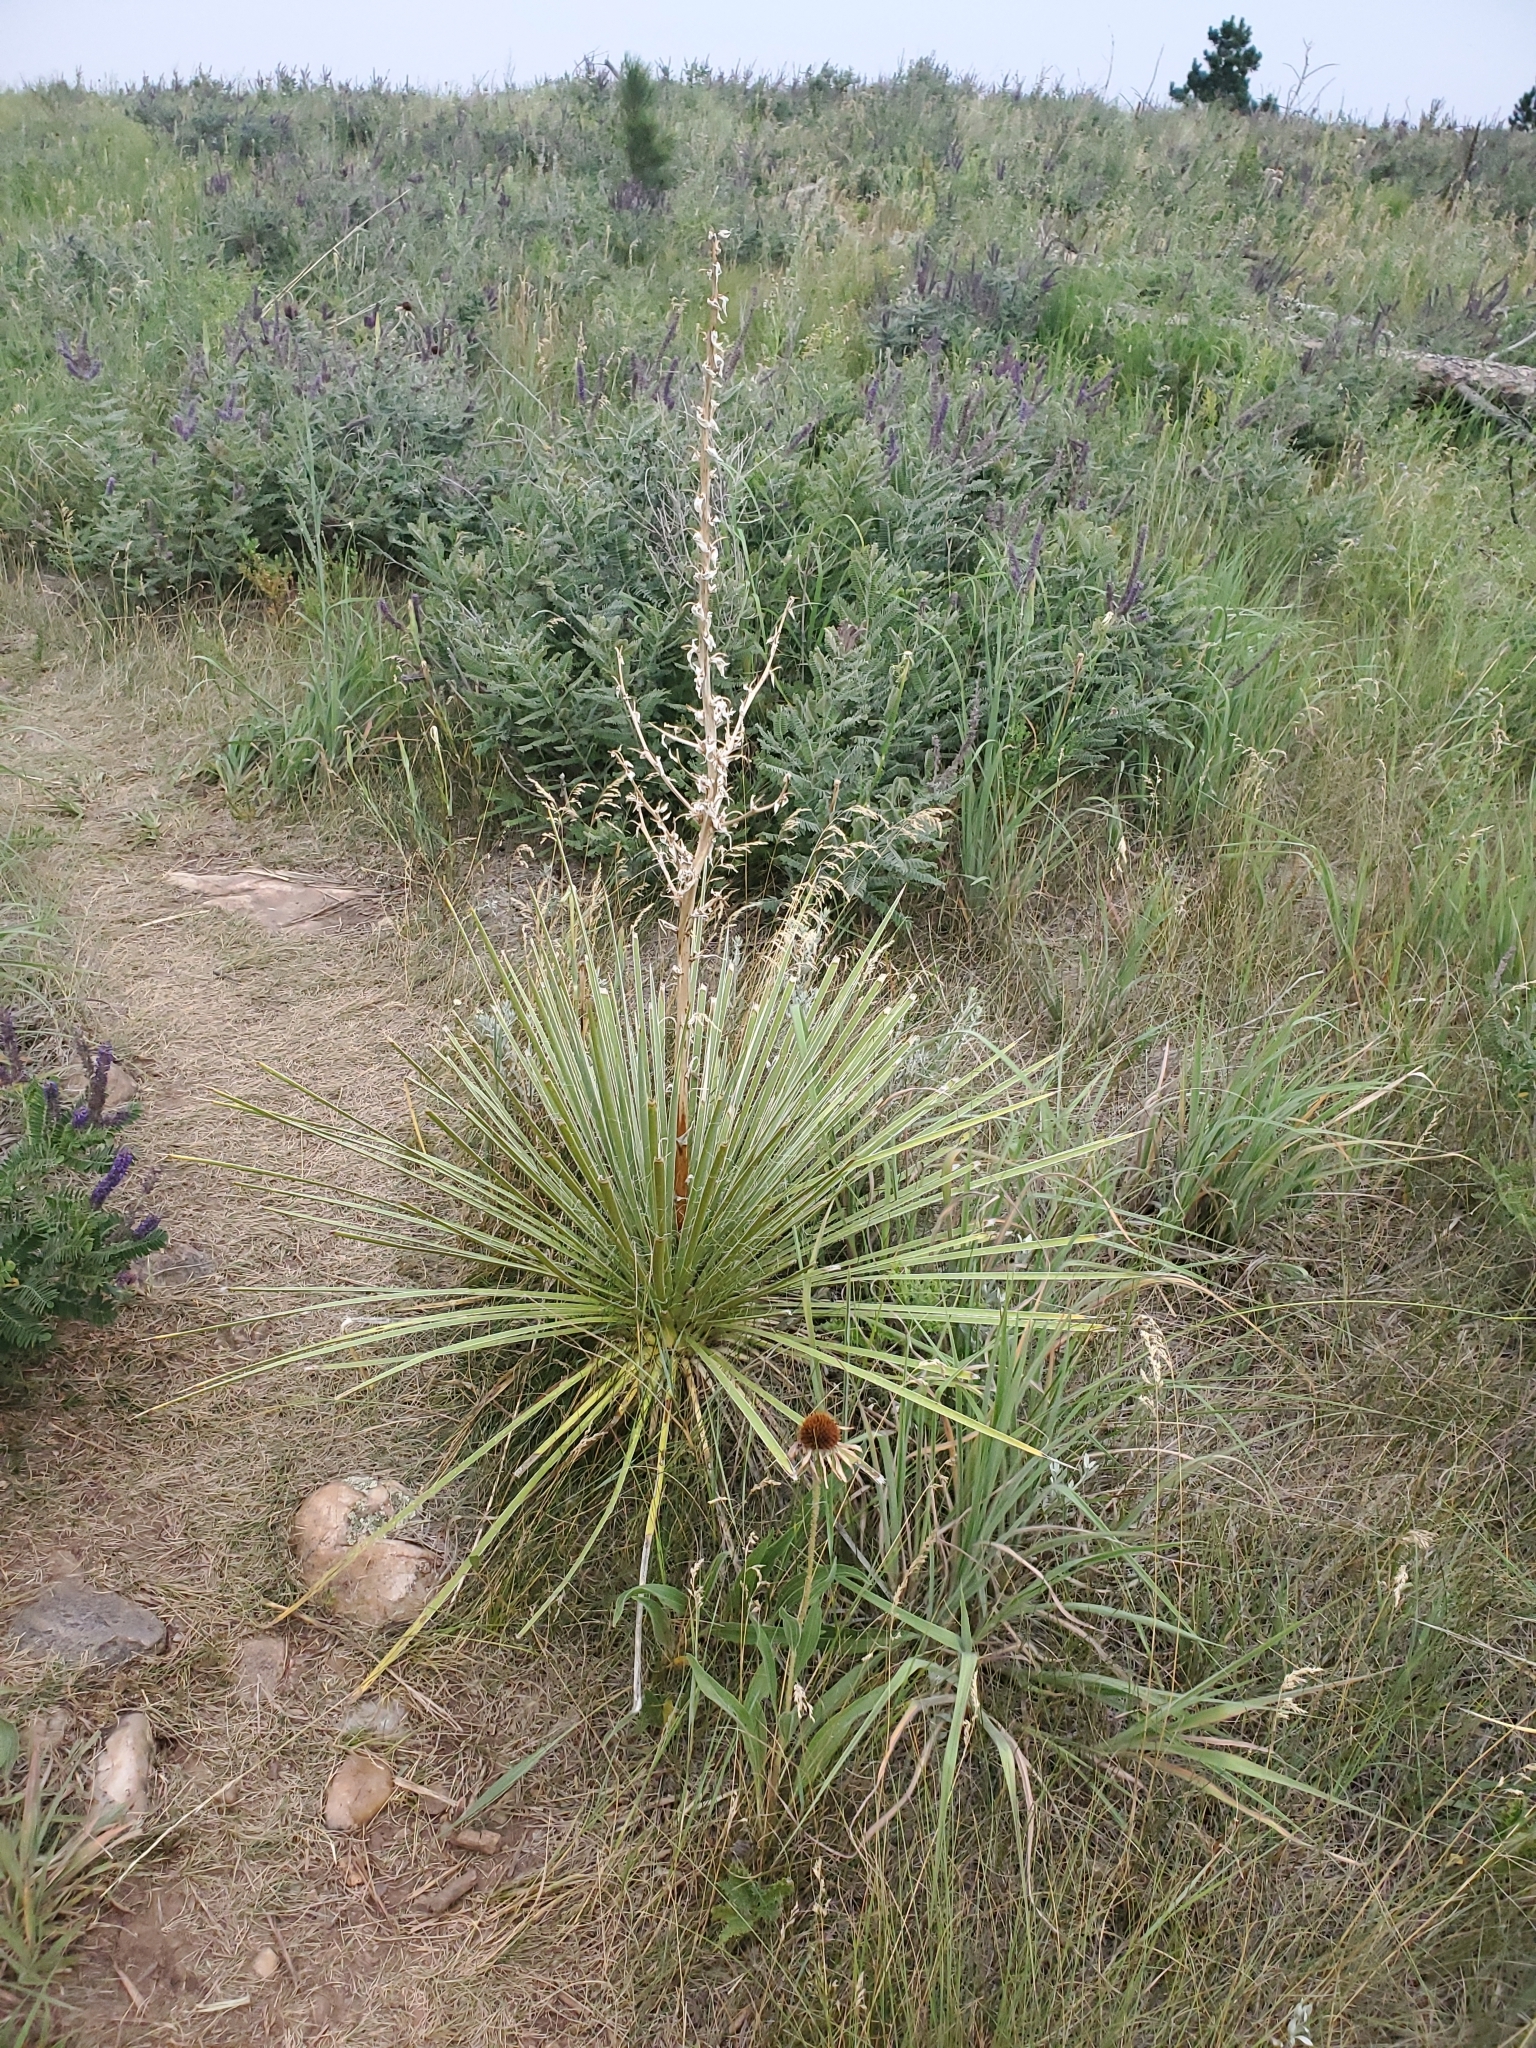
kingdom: Plantae
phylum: Tracheophyta
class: Liliopsida
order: Asparagales
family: Asparagaceae
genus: Yucca
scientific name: Yucca glauca
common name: Great plains yucca
